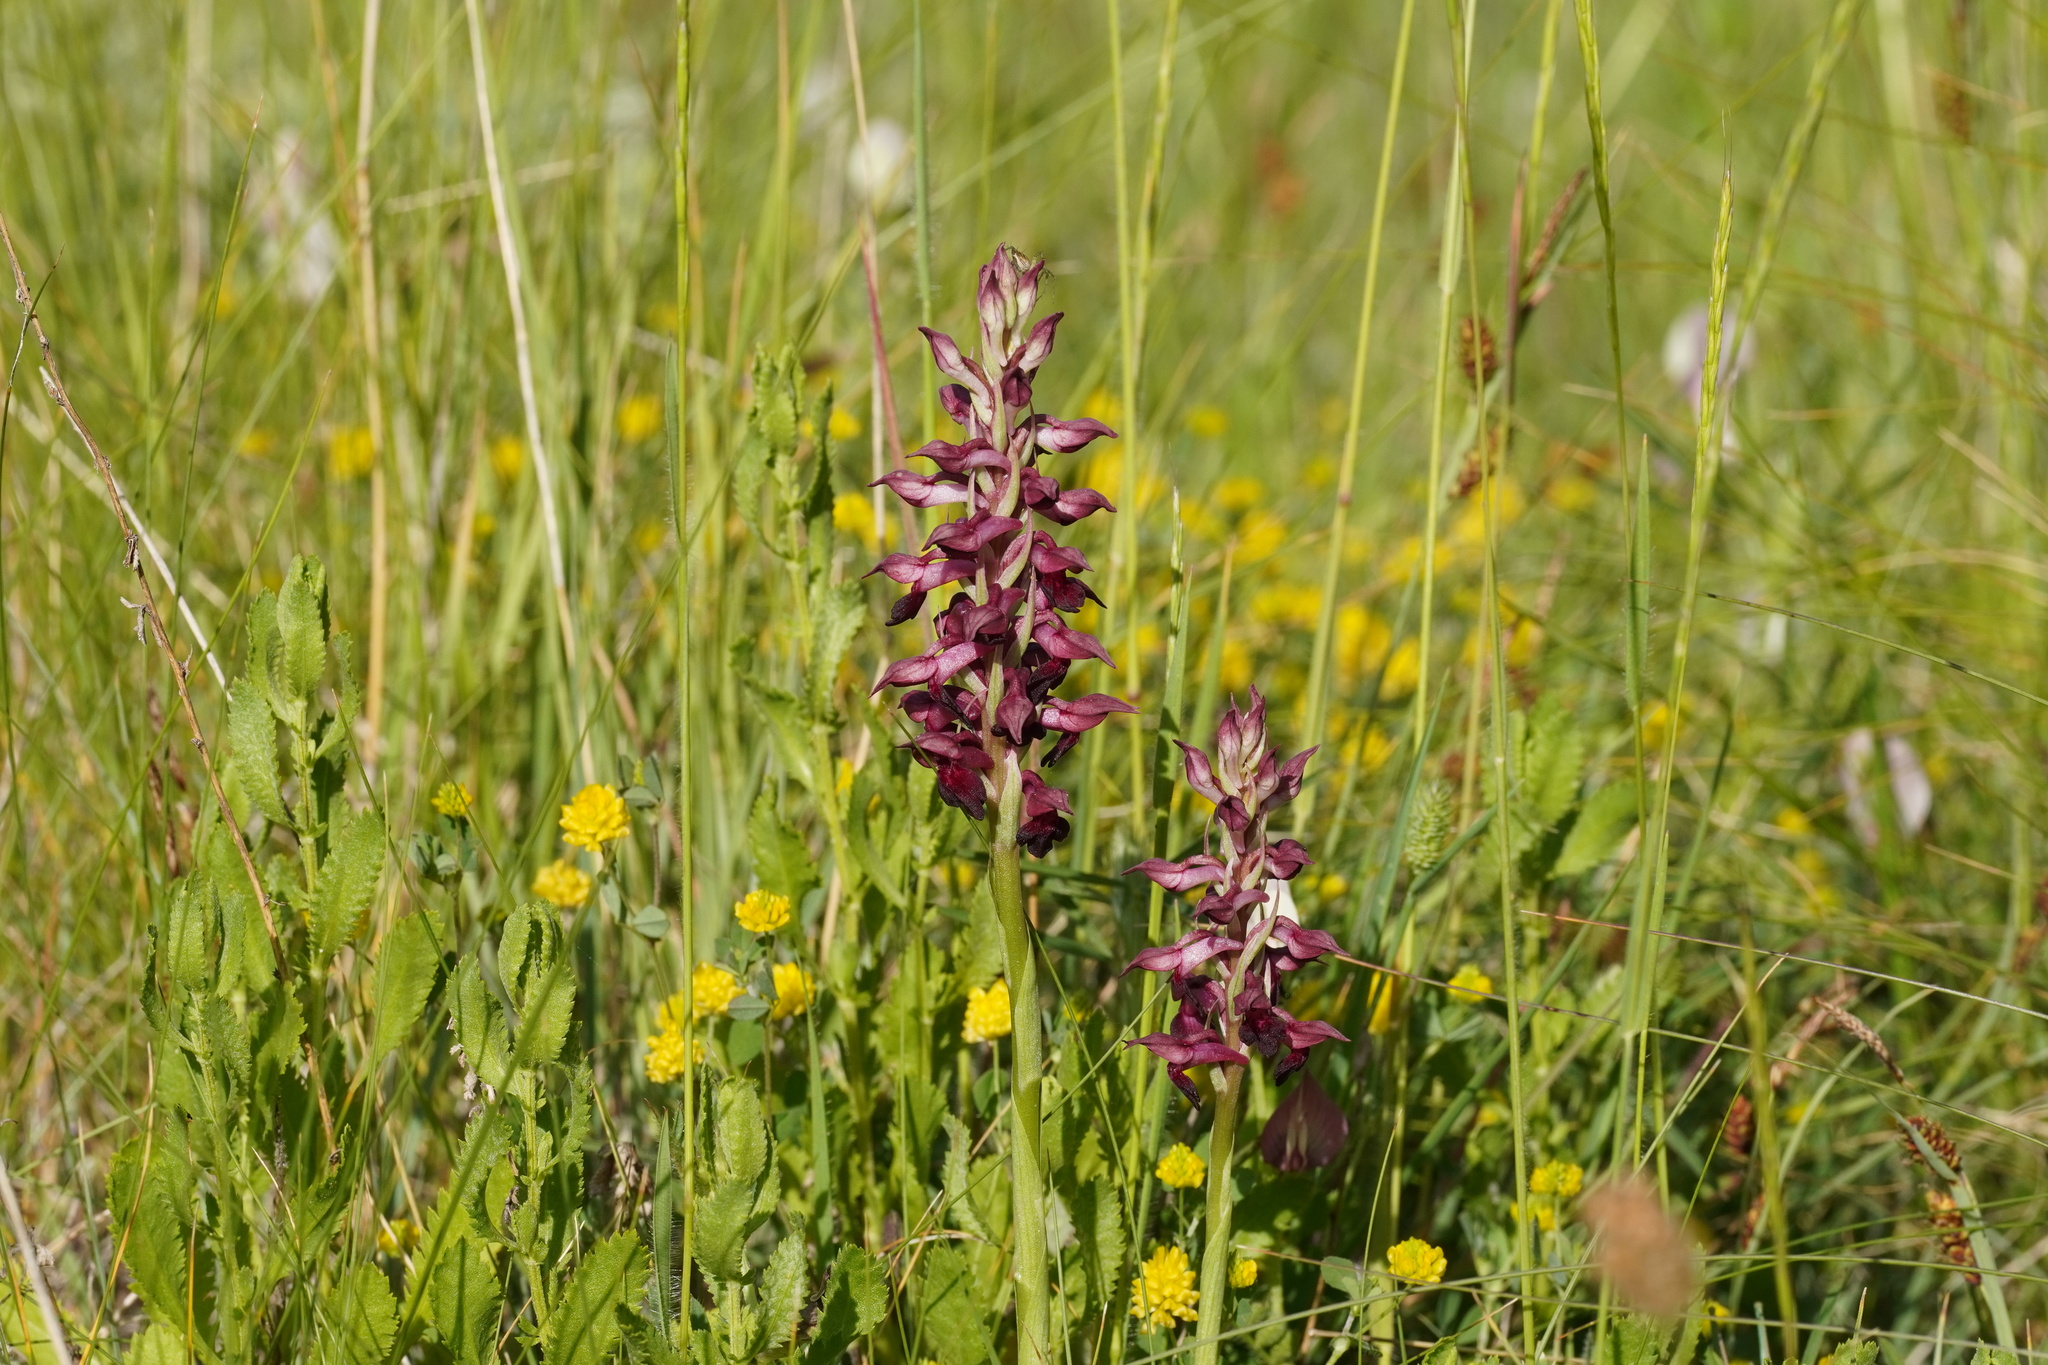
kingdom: Plantae
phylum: Tracheophyta
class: Liliopsida
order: Asparagales
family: Orchidaceae
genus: Anacamptis
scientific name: Anacamptis coriophora
